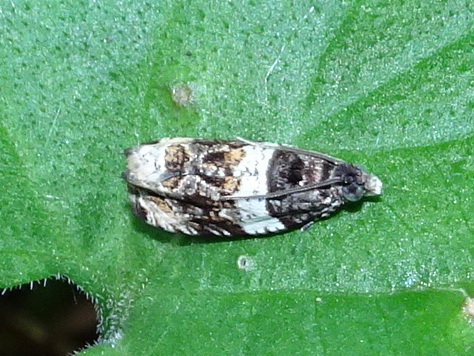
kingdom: Animalia
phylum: Arthropoda
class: Insecta
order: Lepidoptera
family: Tortricidae
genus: Olethreutes
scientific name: Olethreutes fasciatana
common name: Banded olethreutes moth
